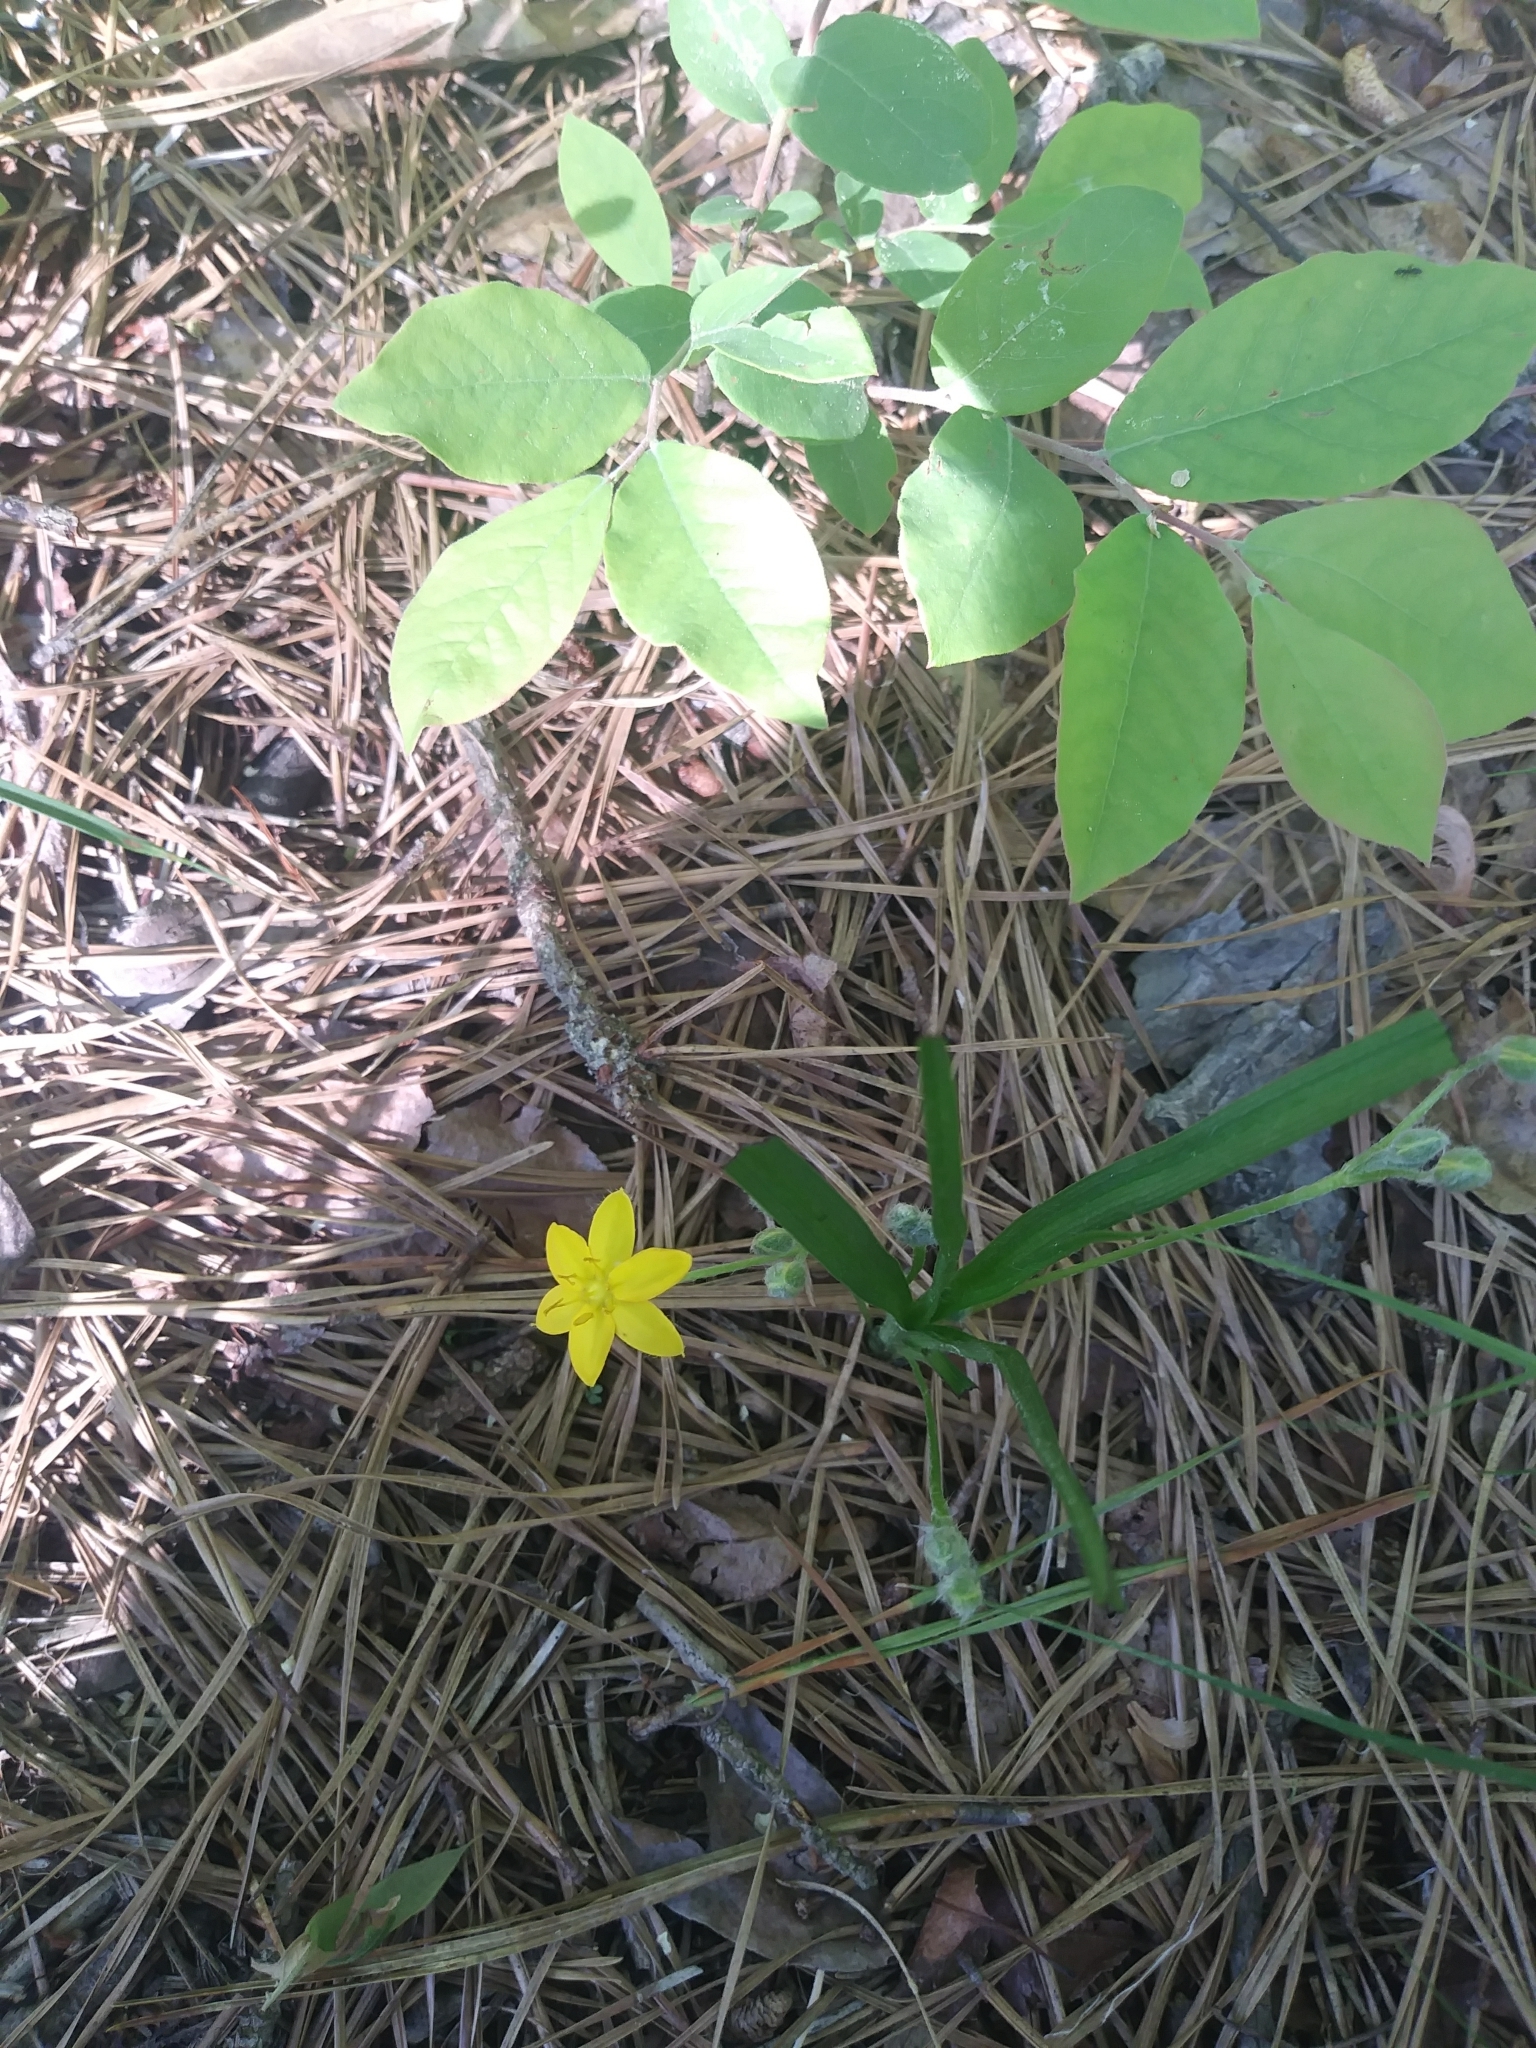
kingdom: Plantae
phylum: Tracheophyta
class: Liliopsida
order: Asparagales
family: Hypoxidaceae
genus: Hypoxis
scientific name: Hypoxis hirsuta
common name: Common goldstar
